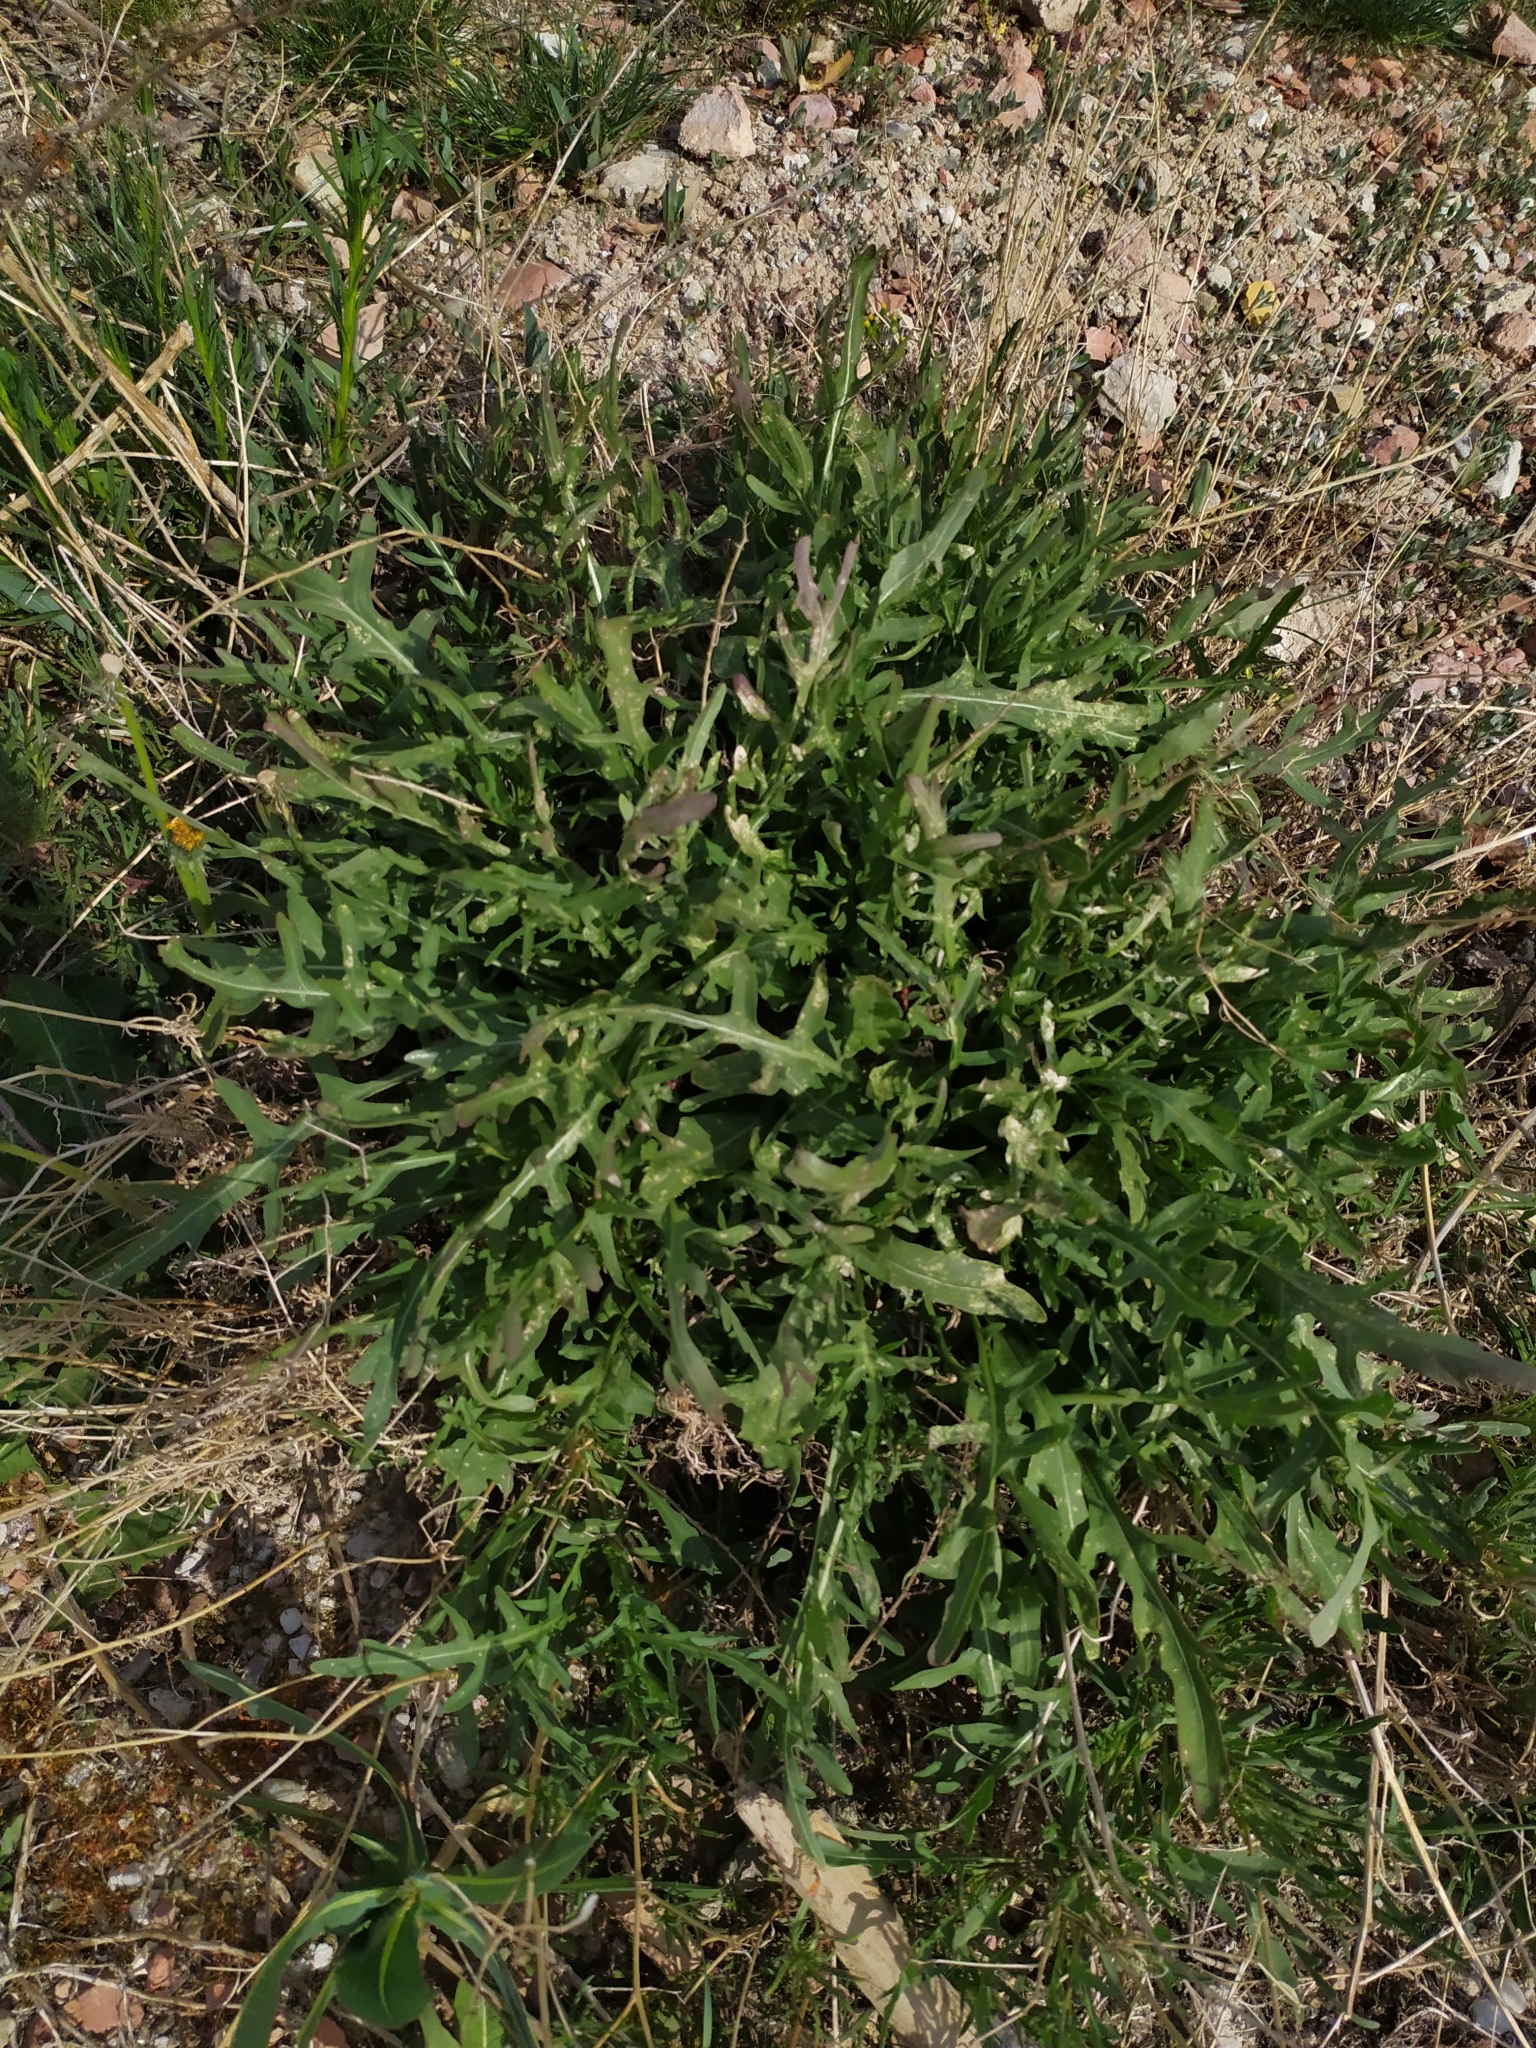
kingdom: Plantae
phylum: Tracheophyta
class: Magnoliopsida
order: Brassicales
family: Brassicaceae
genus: Diplotaxis
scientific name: Diplotaxis tenuifolia
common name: Perennial wall-rocket
